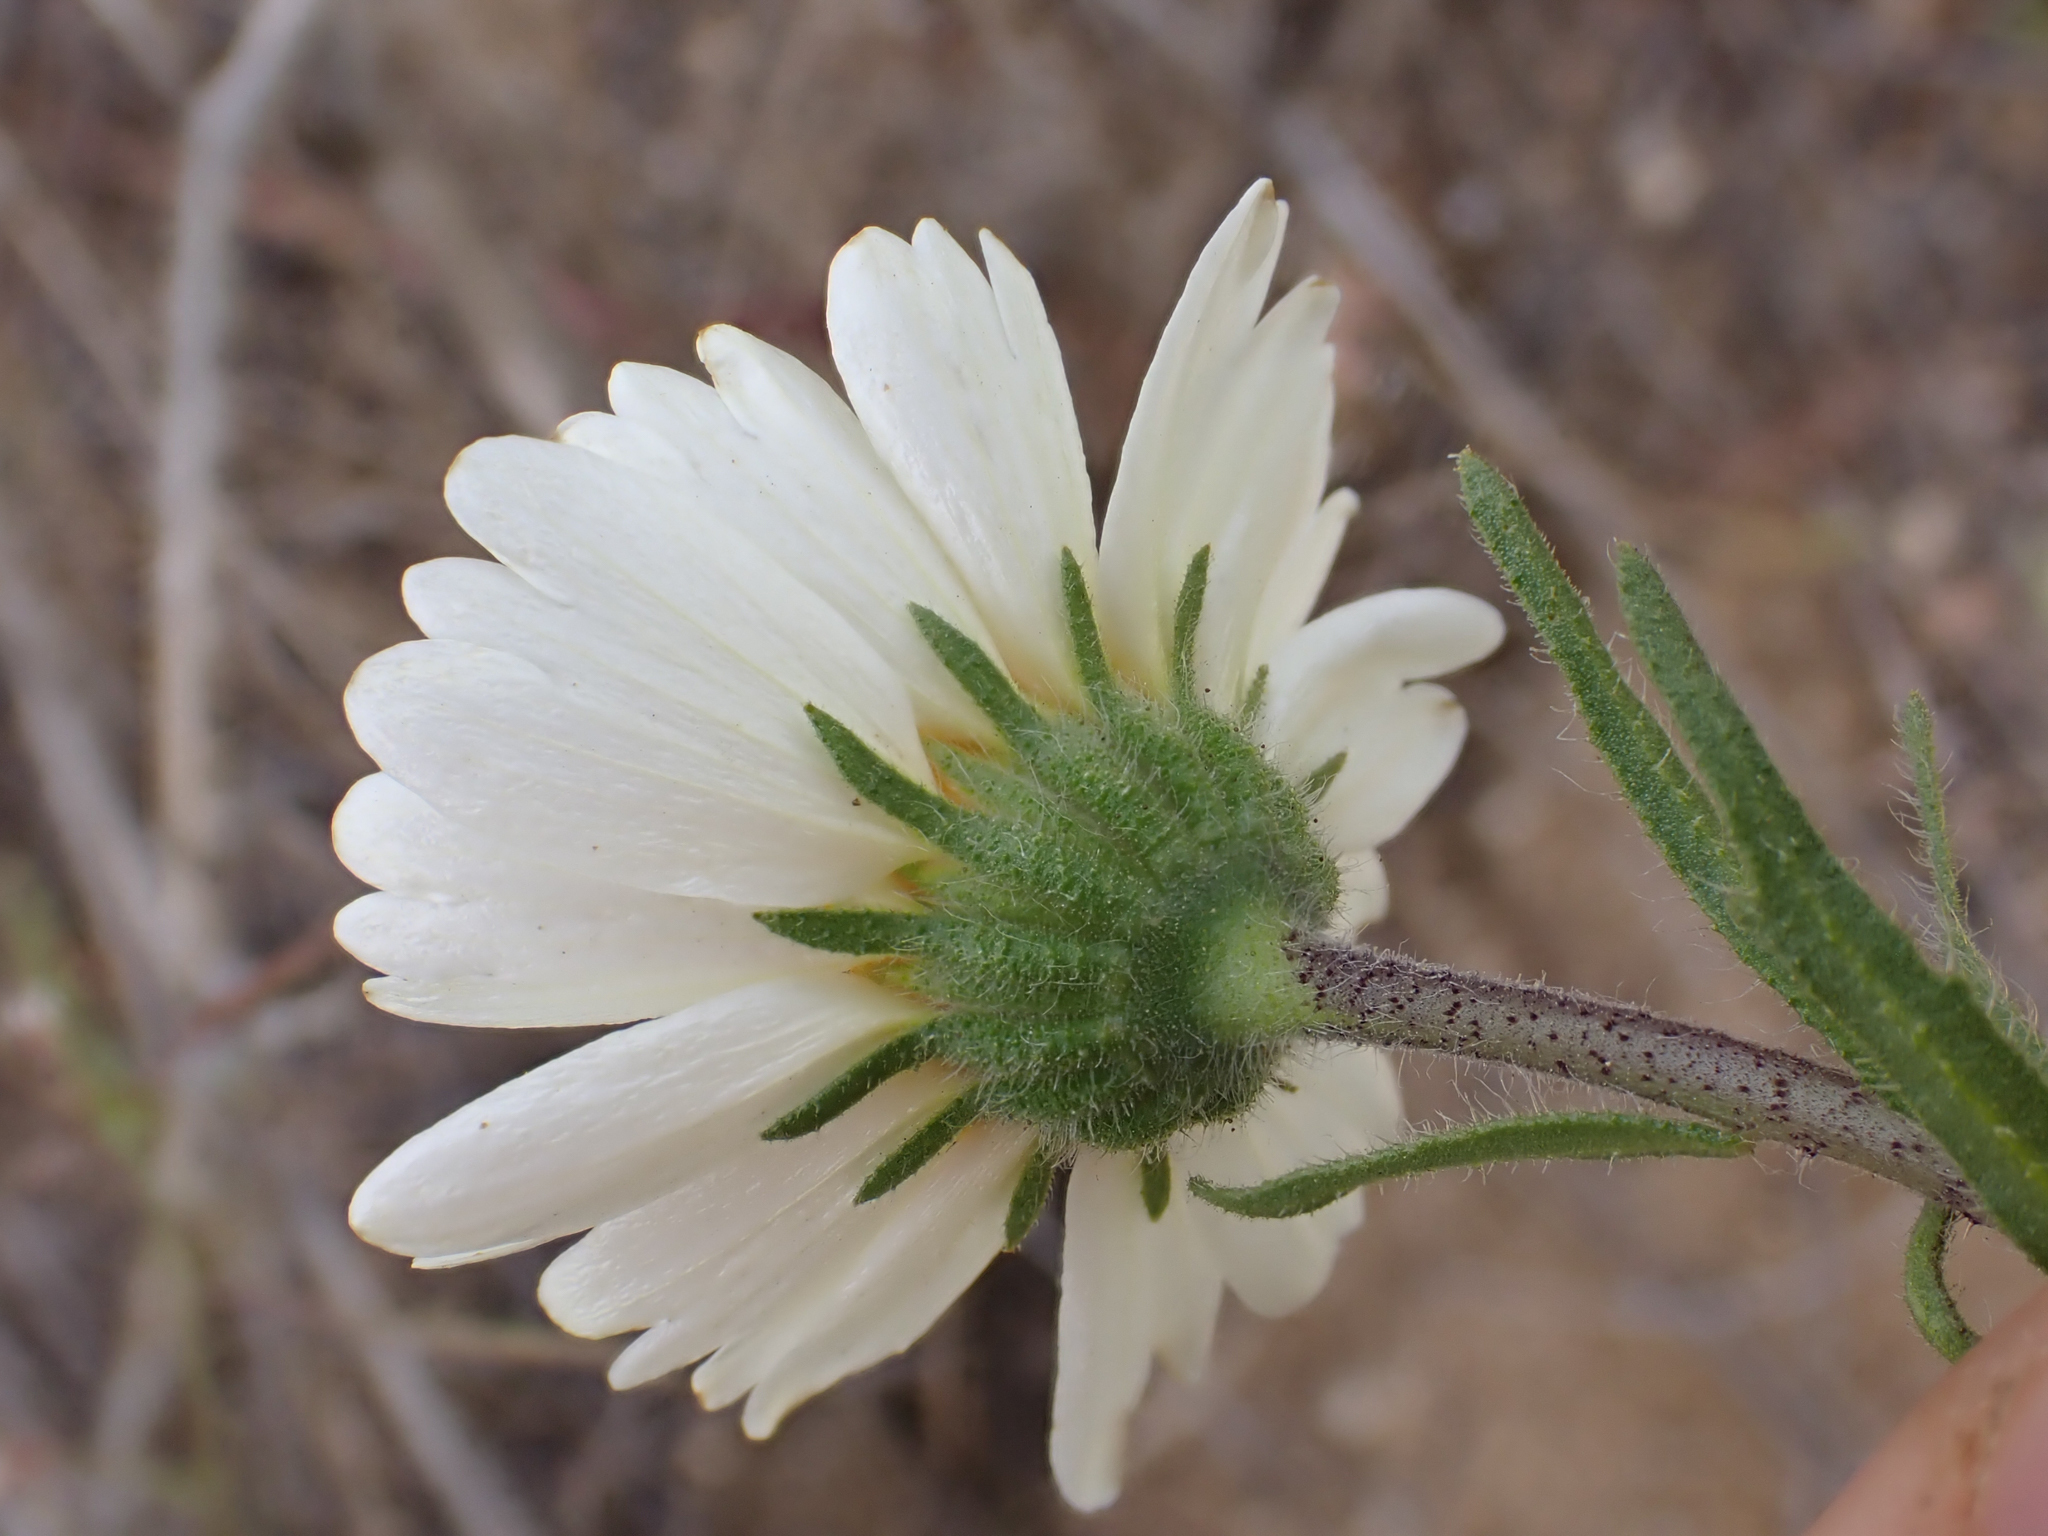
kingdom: Plantae
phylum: Tracheophyta
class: Magnoliopsida
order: Asterales
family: Asteraceae
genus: Layia
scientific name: Layia pentachaeta
